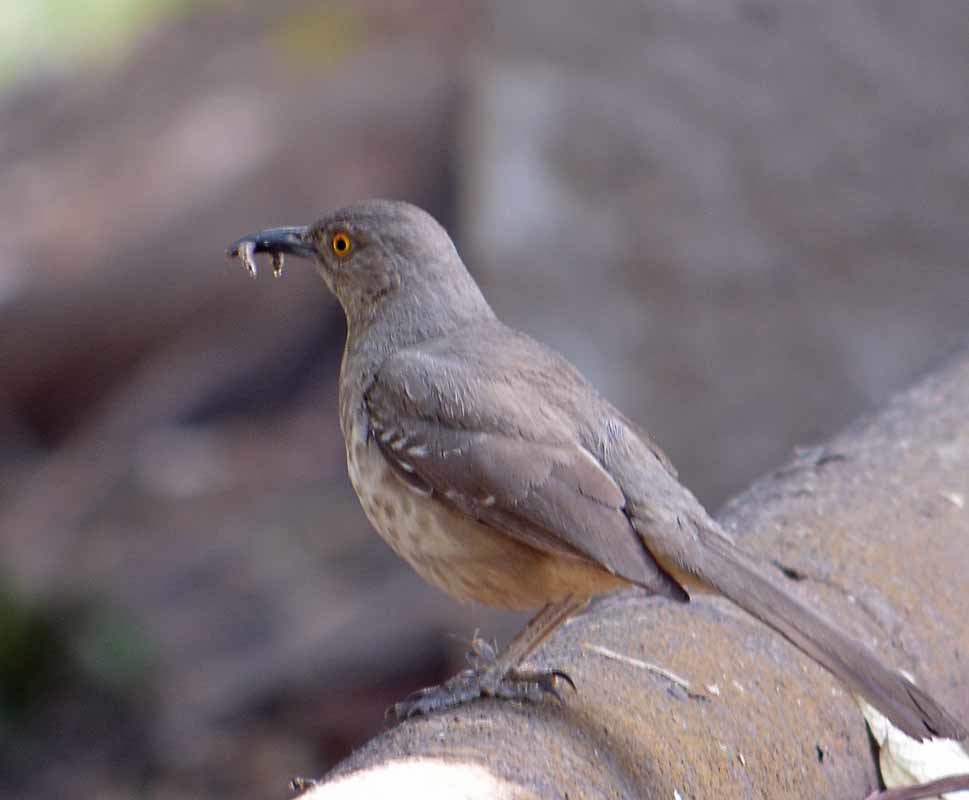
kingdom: Animalia
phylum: Chordata
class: Aves
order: Passeriformes
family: Mimidae
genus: Toxostoma
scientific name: Toxostoma curvirostre
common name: Curve-billed thrasher
